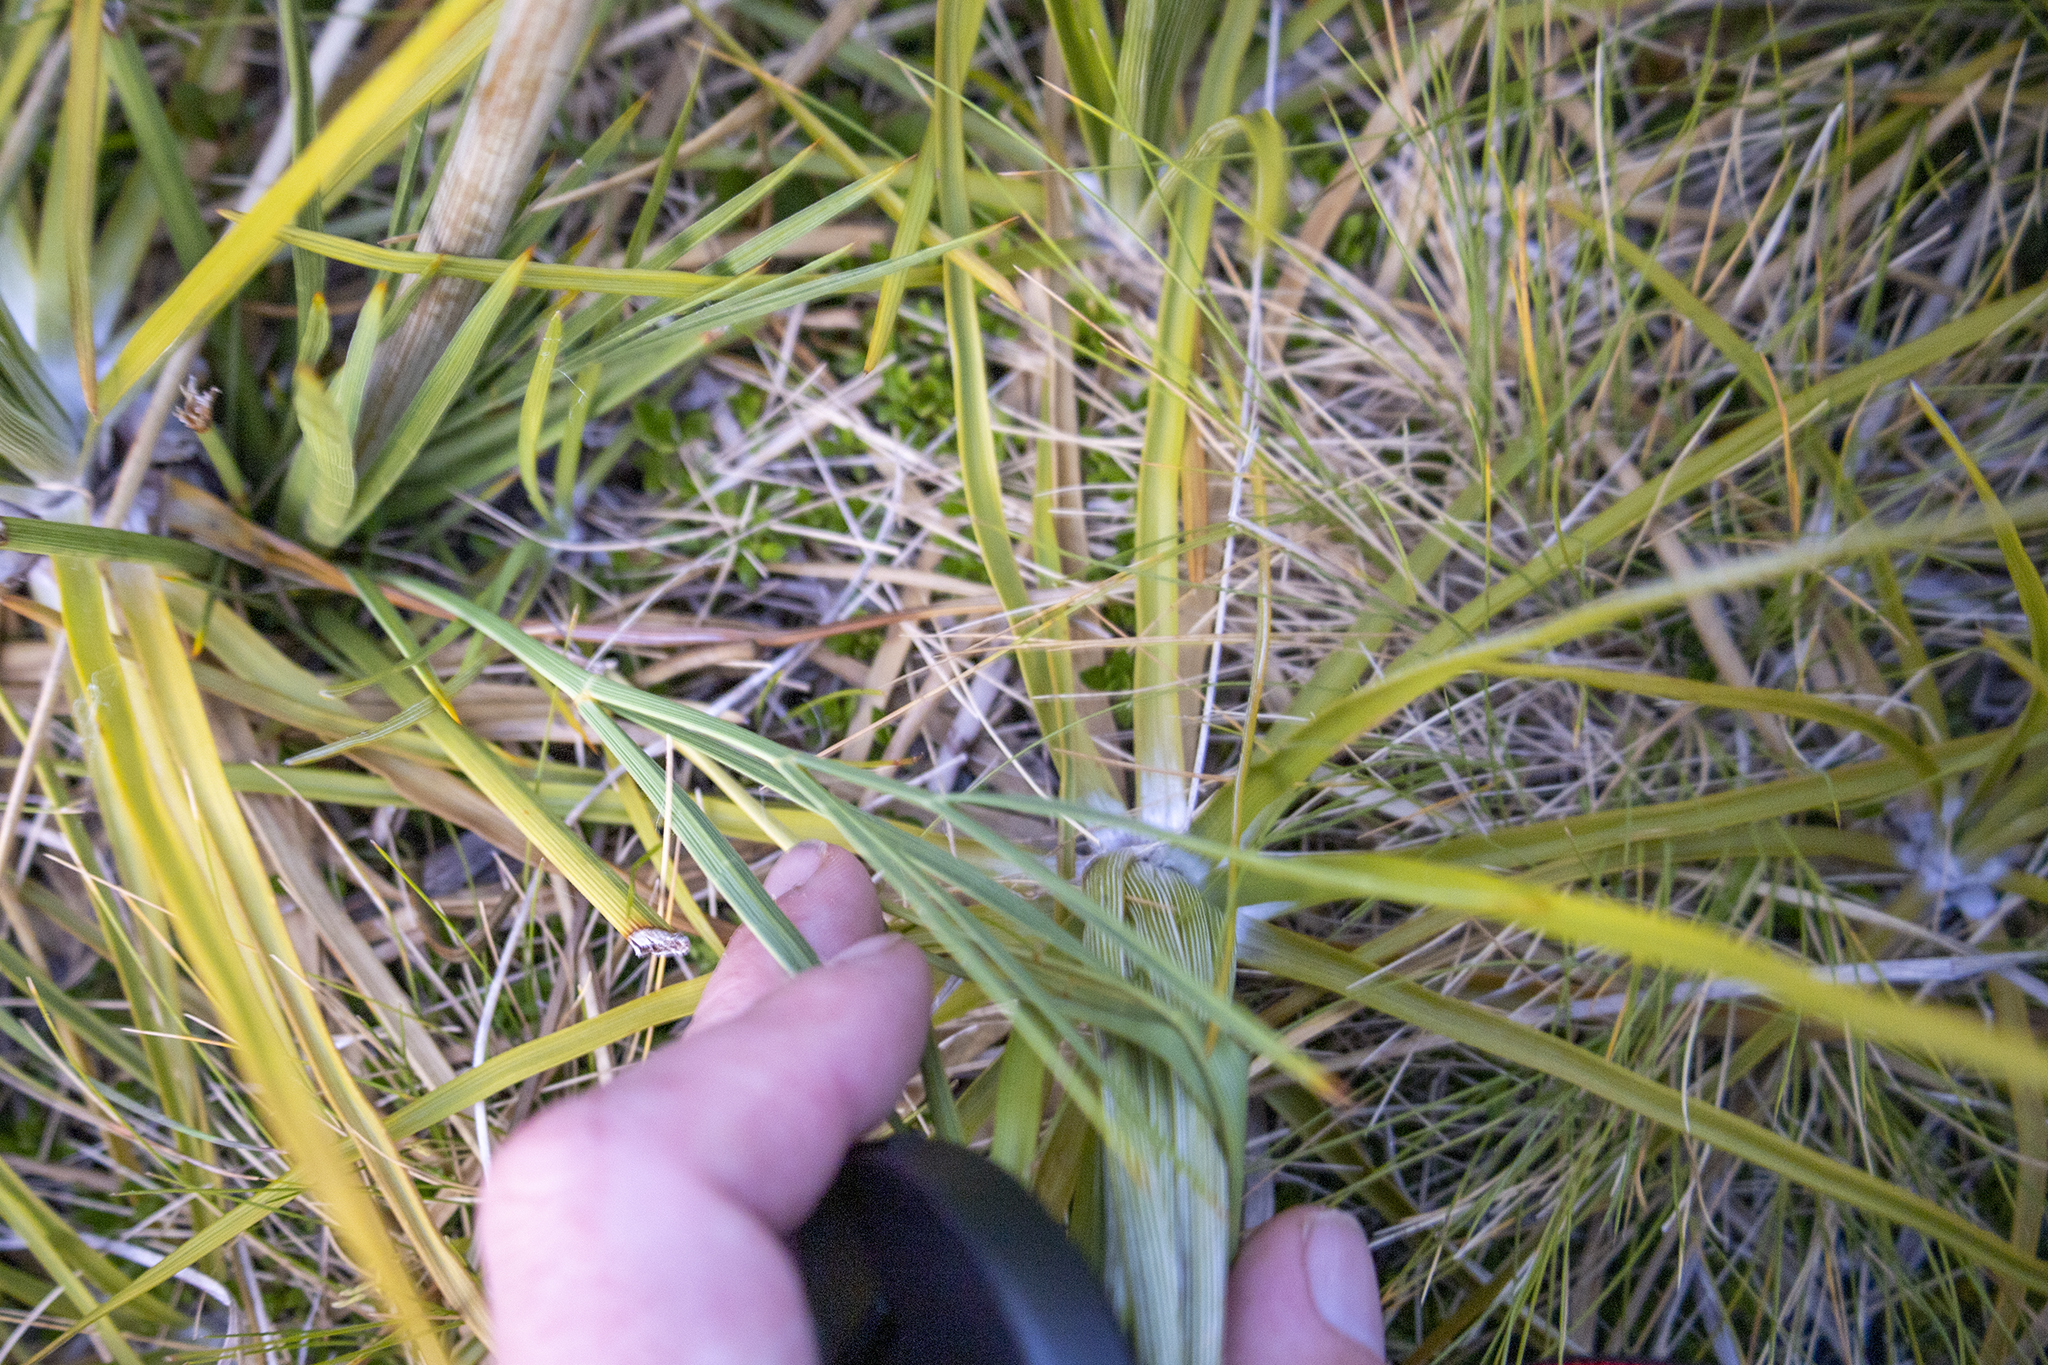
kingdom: Plantae
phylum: Tracheophyta
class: Magnoliopsida
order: Apiales
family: Apiaceae
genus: Aciphylla
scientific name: Aciphylla crenulata
